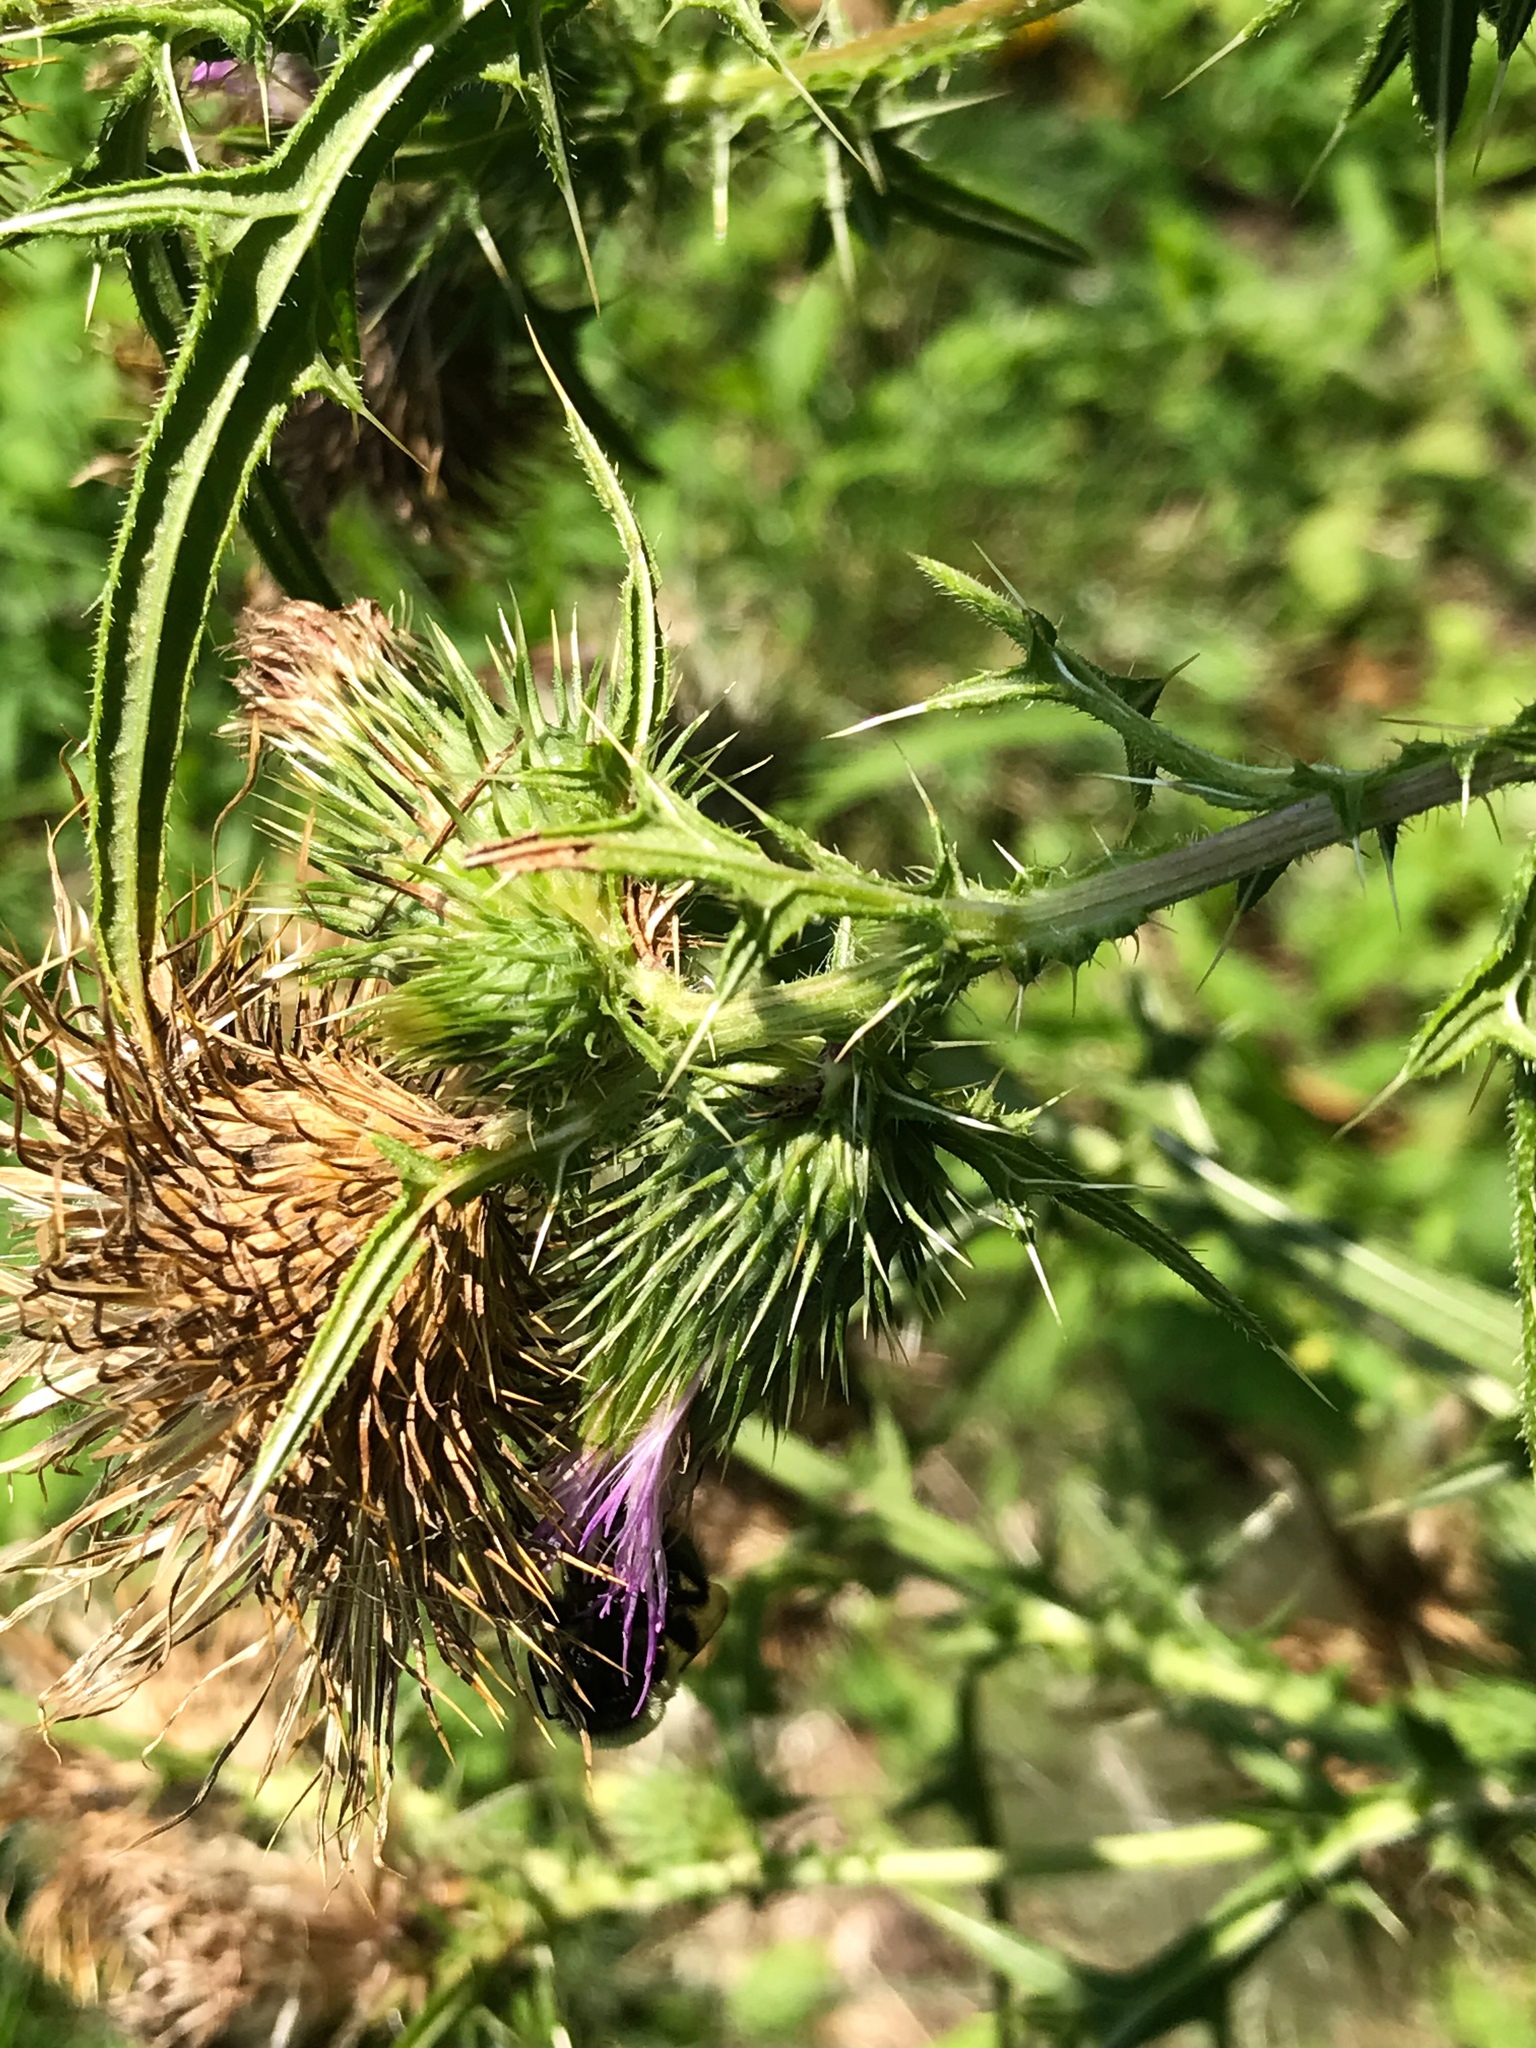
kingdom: Plantae
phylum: Tracheophyta
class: Magnoliopsida
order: Asterales
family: Asteraceae
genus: Cirsium
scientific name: Cirsium vulgare
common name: Bull thistle
